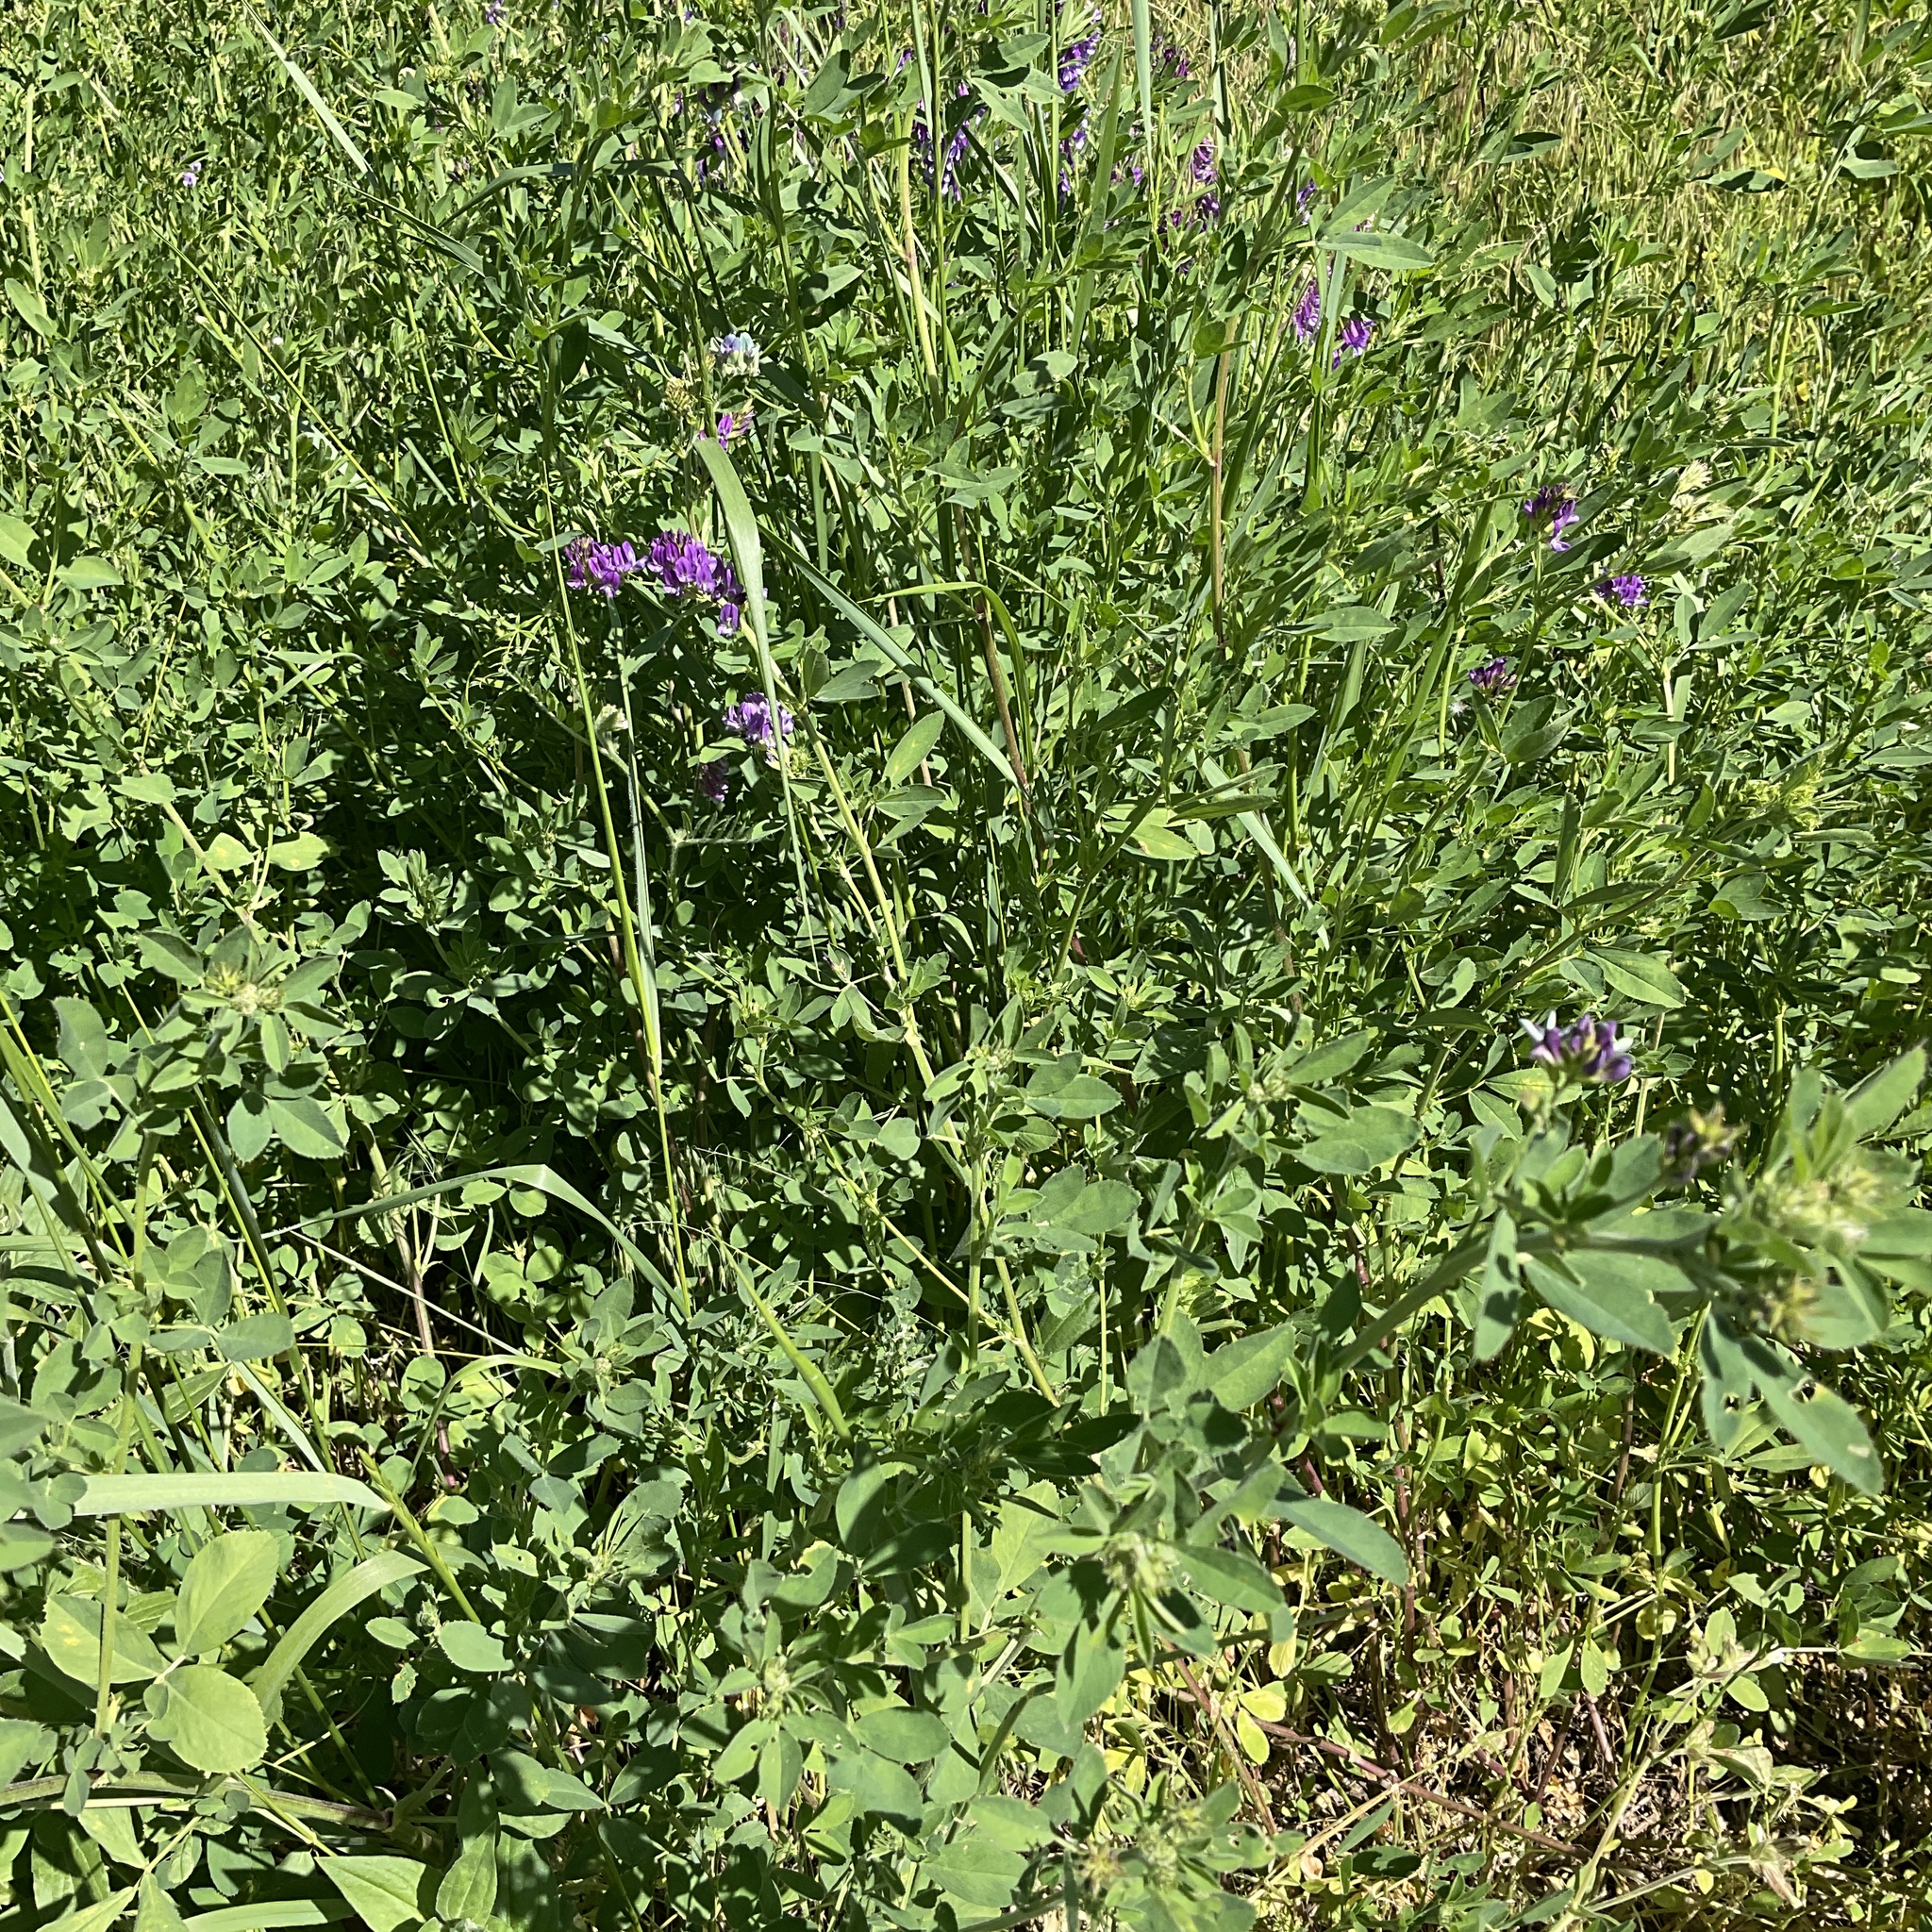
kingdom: Plantae
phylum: Tracheophyta
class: Magnoliopsida
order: Fabales
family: Fabaceae
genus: Medicago
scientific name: Medicago sativa
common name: Alfalfa
